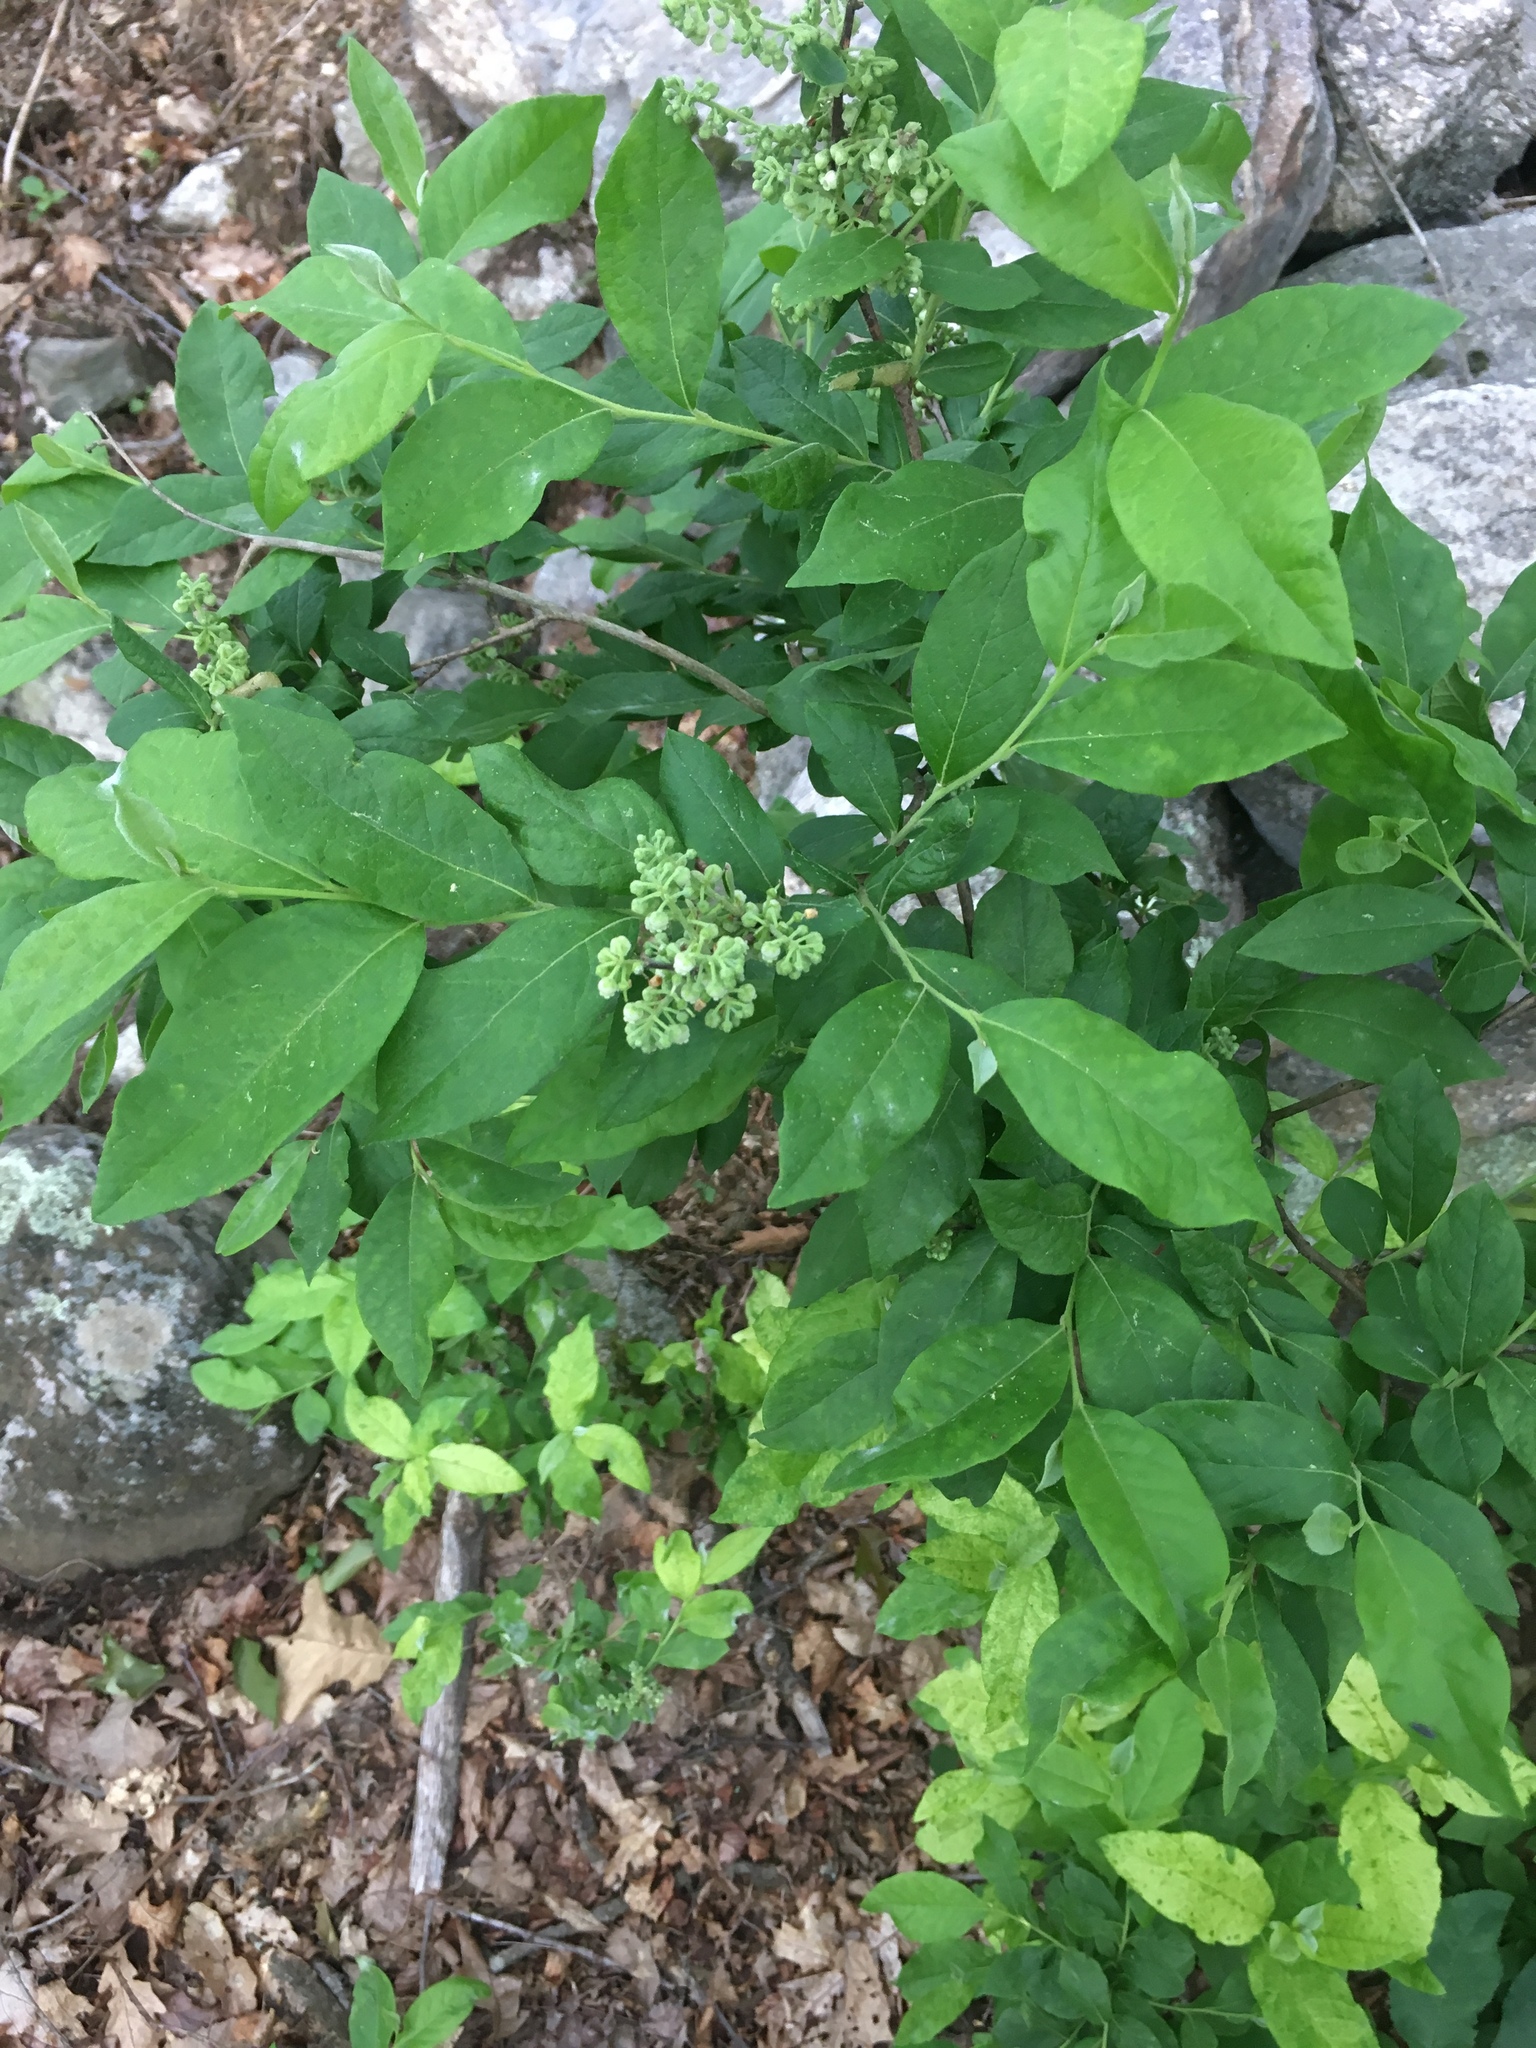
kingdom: Plantae
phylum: Tracheophyta
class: Magnoliopsida
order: Ericales
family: Ericaceae
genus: Lyonia
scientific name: Lyonia ligustrina
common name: Maleberry
